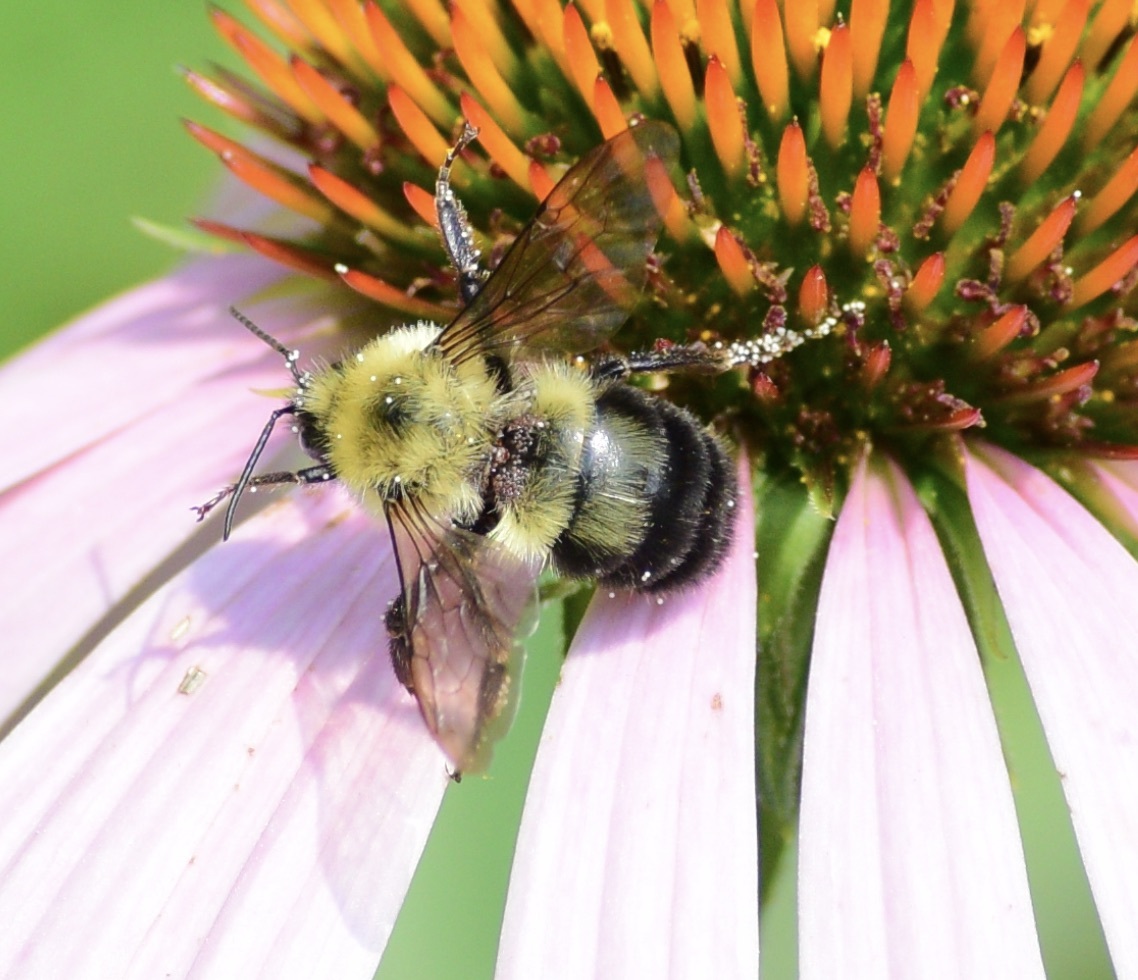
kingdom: Animalia
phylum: Arthropoda
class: Insecta
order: Hymenoptera
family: Apidae
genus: Bombus
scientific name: Bombus bimaculatus
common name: Two-spotted bumble bee
